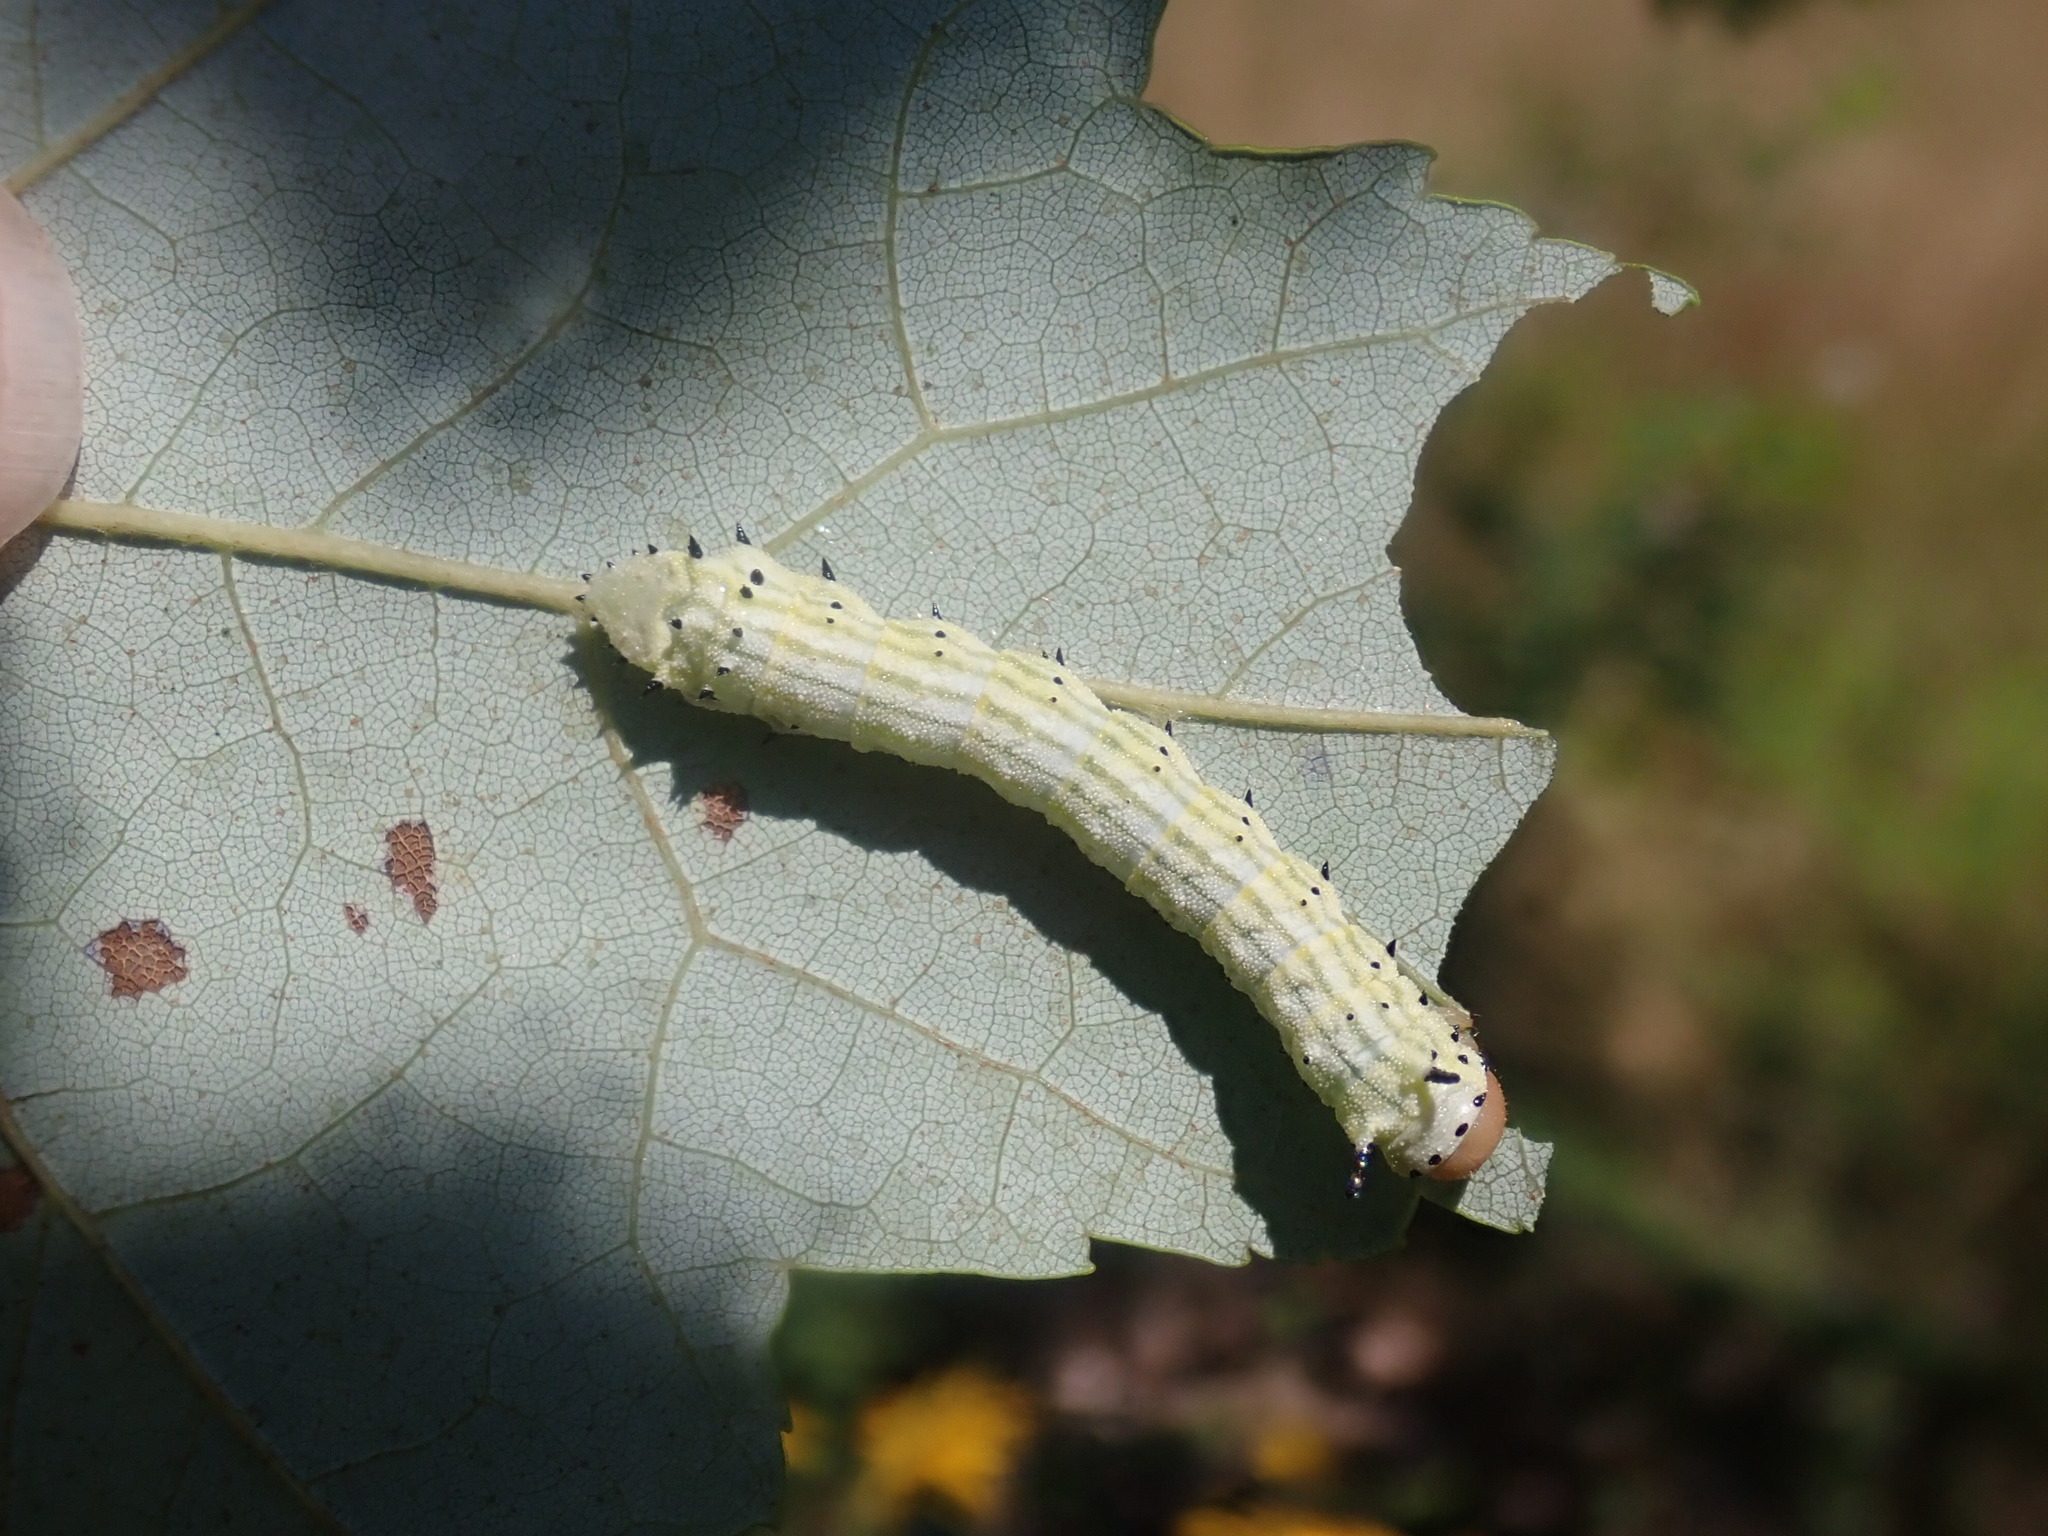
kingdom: Animalia
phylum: Arthropoda
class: Insecta
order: Lepidoptera
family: Saturniidae
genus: Dryocampa
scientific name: Dryocampa rubicunda
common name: Rosy maple moth
